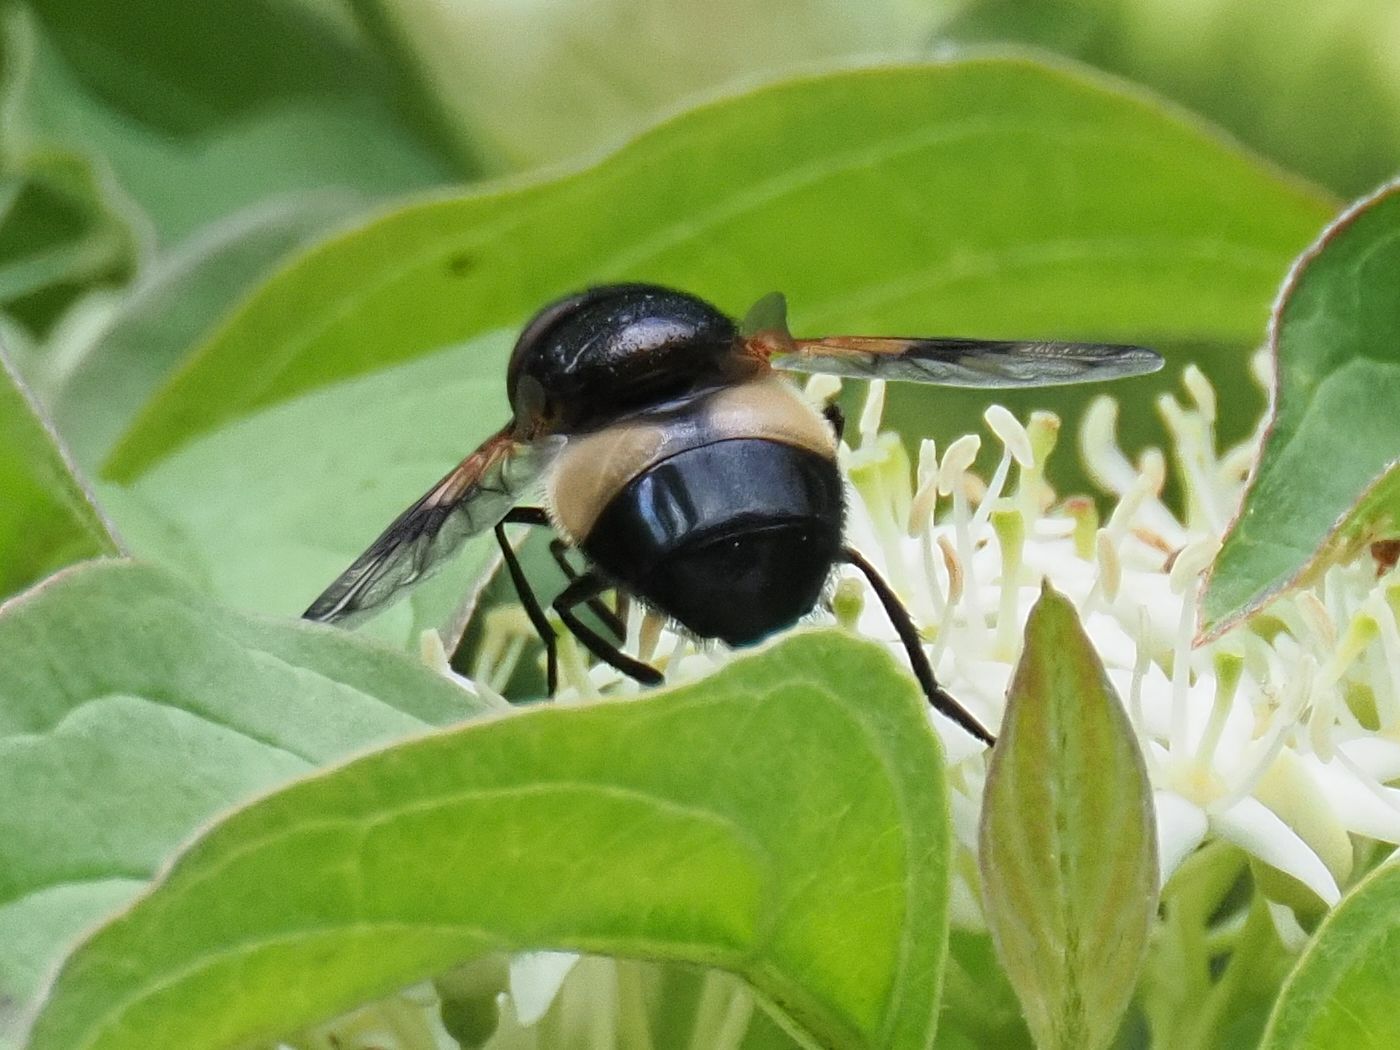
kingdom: Animalia
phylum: Arthropoda
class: Insecta
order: Diptera
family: Syrphidae
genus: Volucella
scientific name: Volucella pellucens
